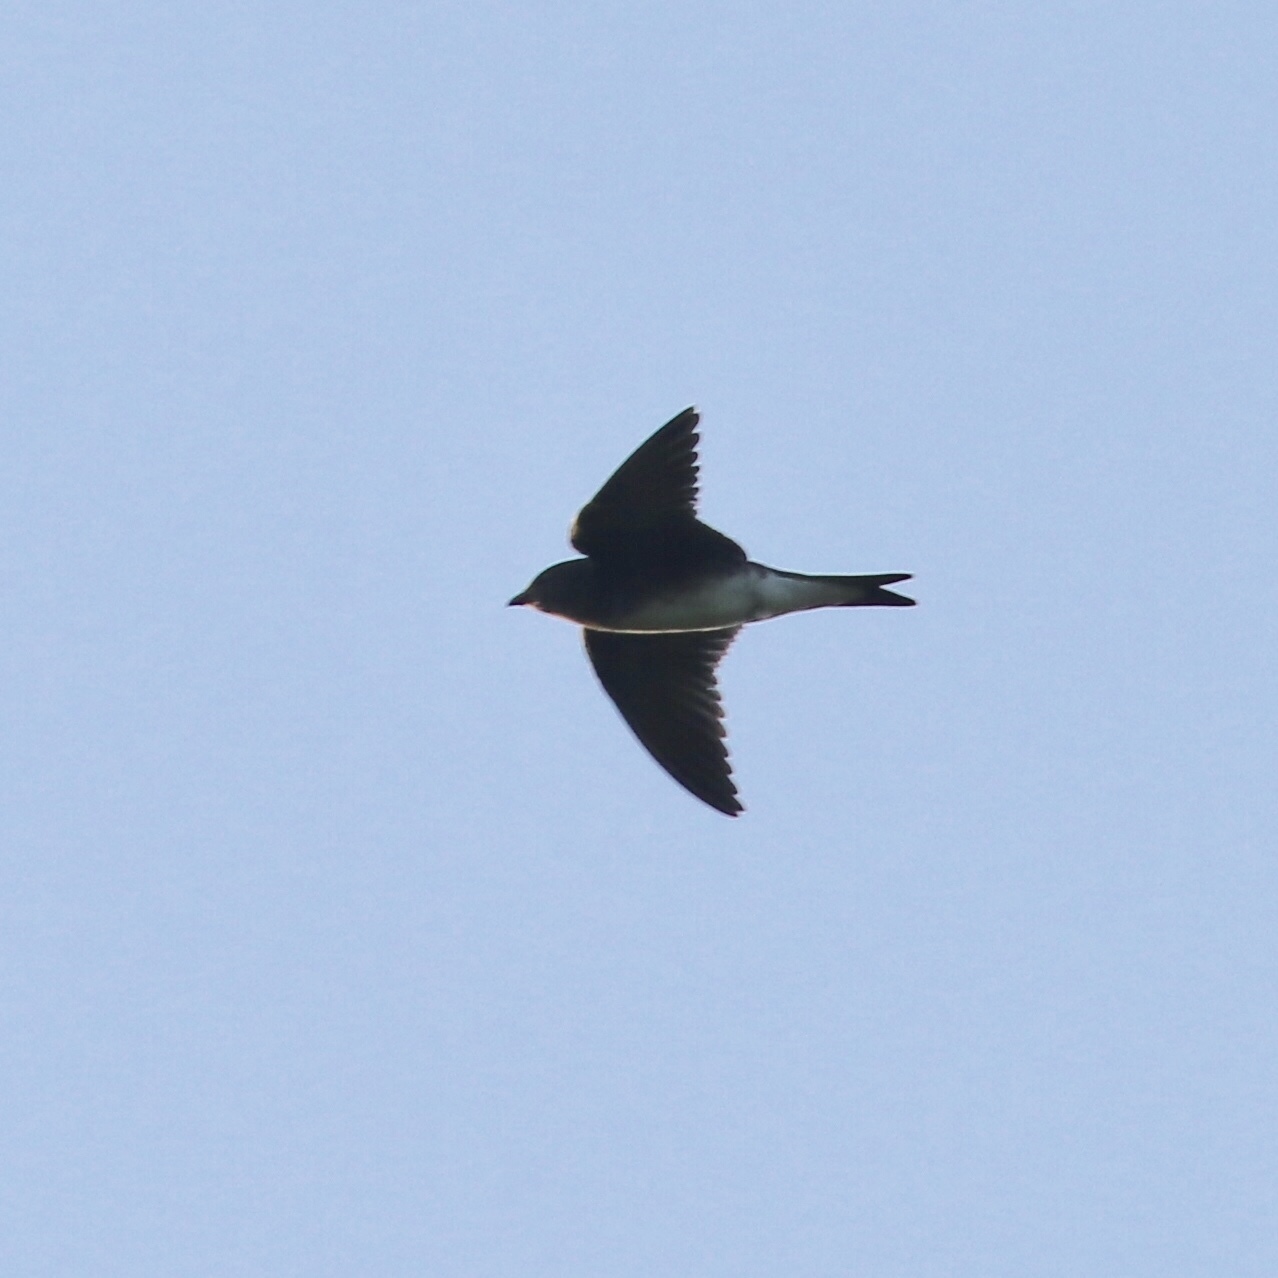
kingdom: Animalia
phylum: Chordata
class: Aves
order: Passeriformes
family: Hirundinidae
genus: Progne
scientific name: Progne dominicensis
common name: Caribbean martin
